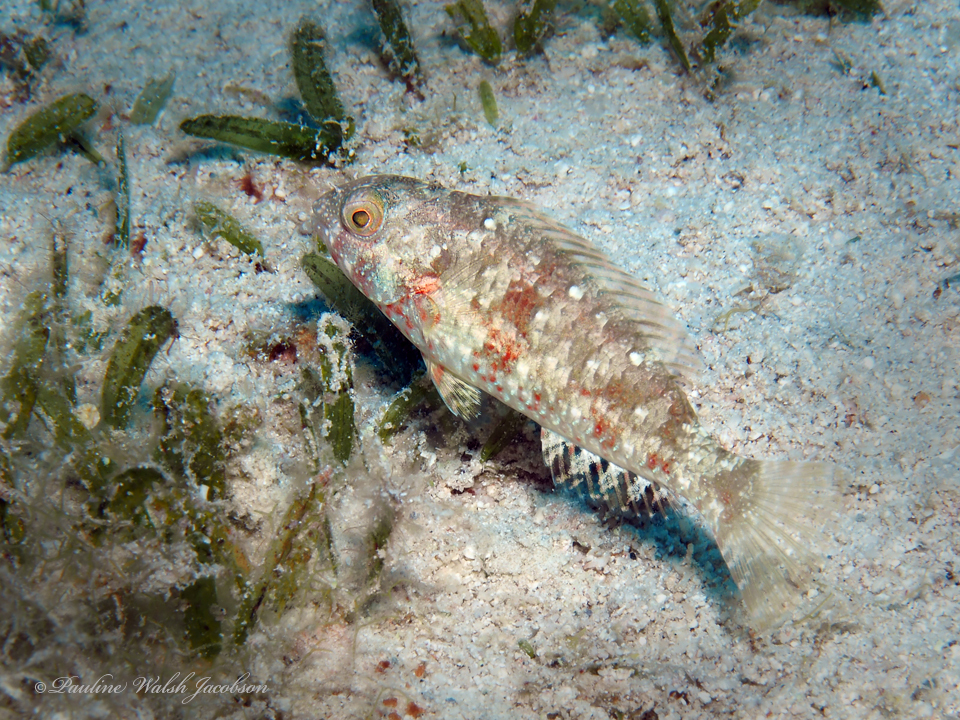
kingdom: Animalia
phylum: Chordata
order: Perciformes
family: Scaridae
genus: Sparisoma
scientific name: Sparisoma chrysopterum
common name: Redtail parrotfish
